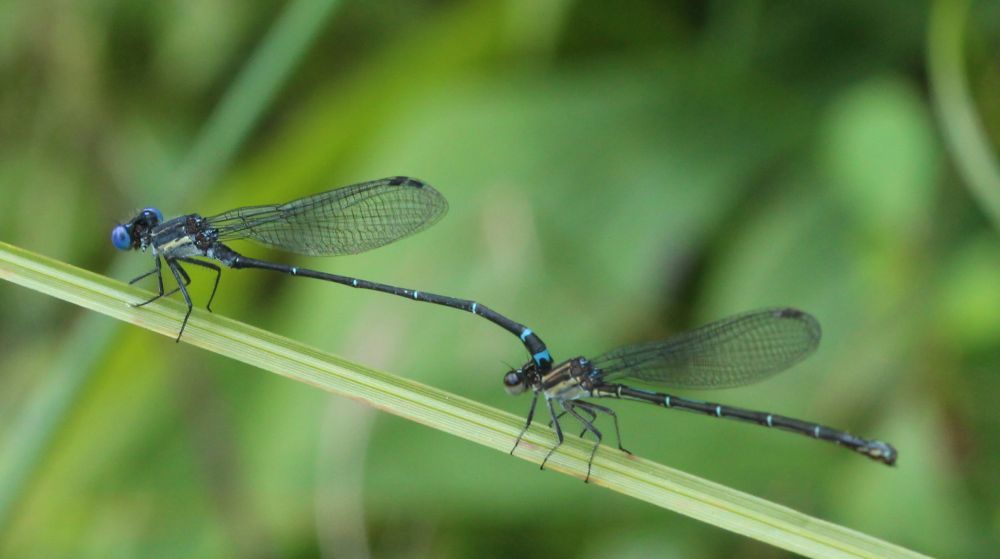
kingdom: Animalia
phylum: Arthropoda
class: Insecta
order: Odonata
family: Coenagrionidae
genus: Argia
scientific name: Argia translata
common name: Dusky dancer
